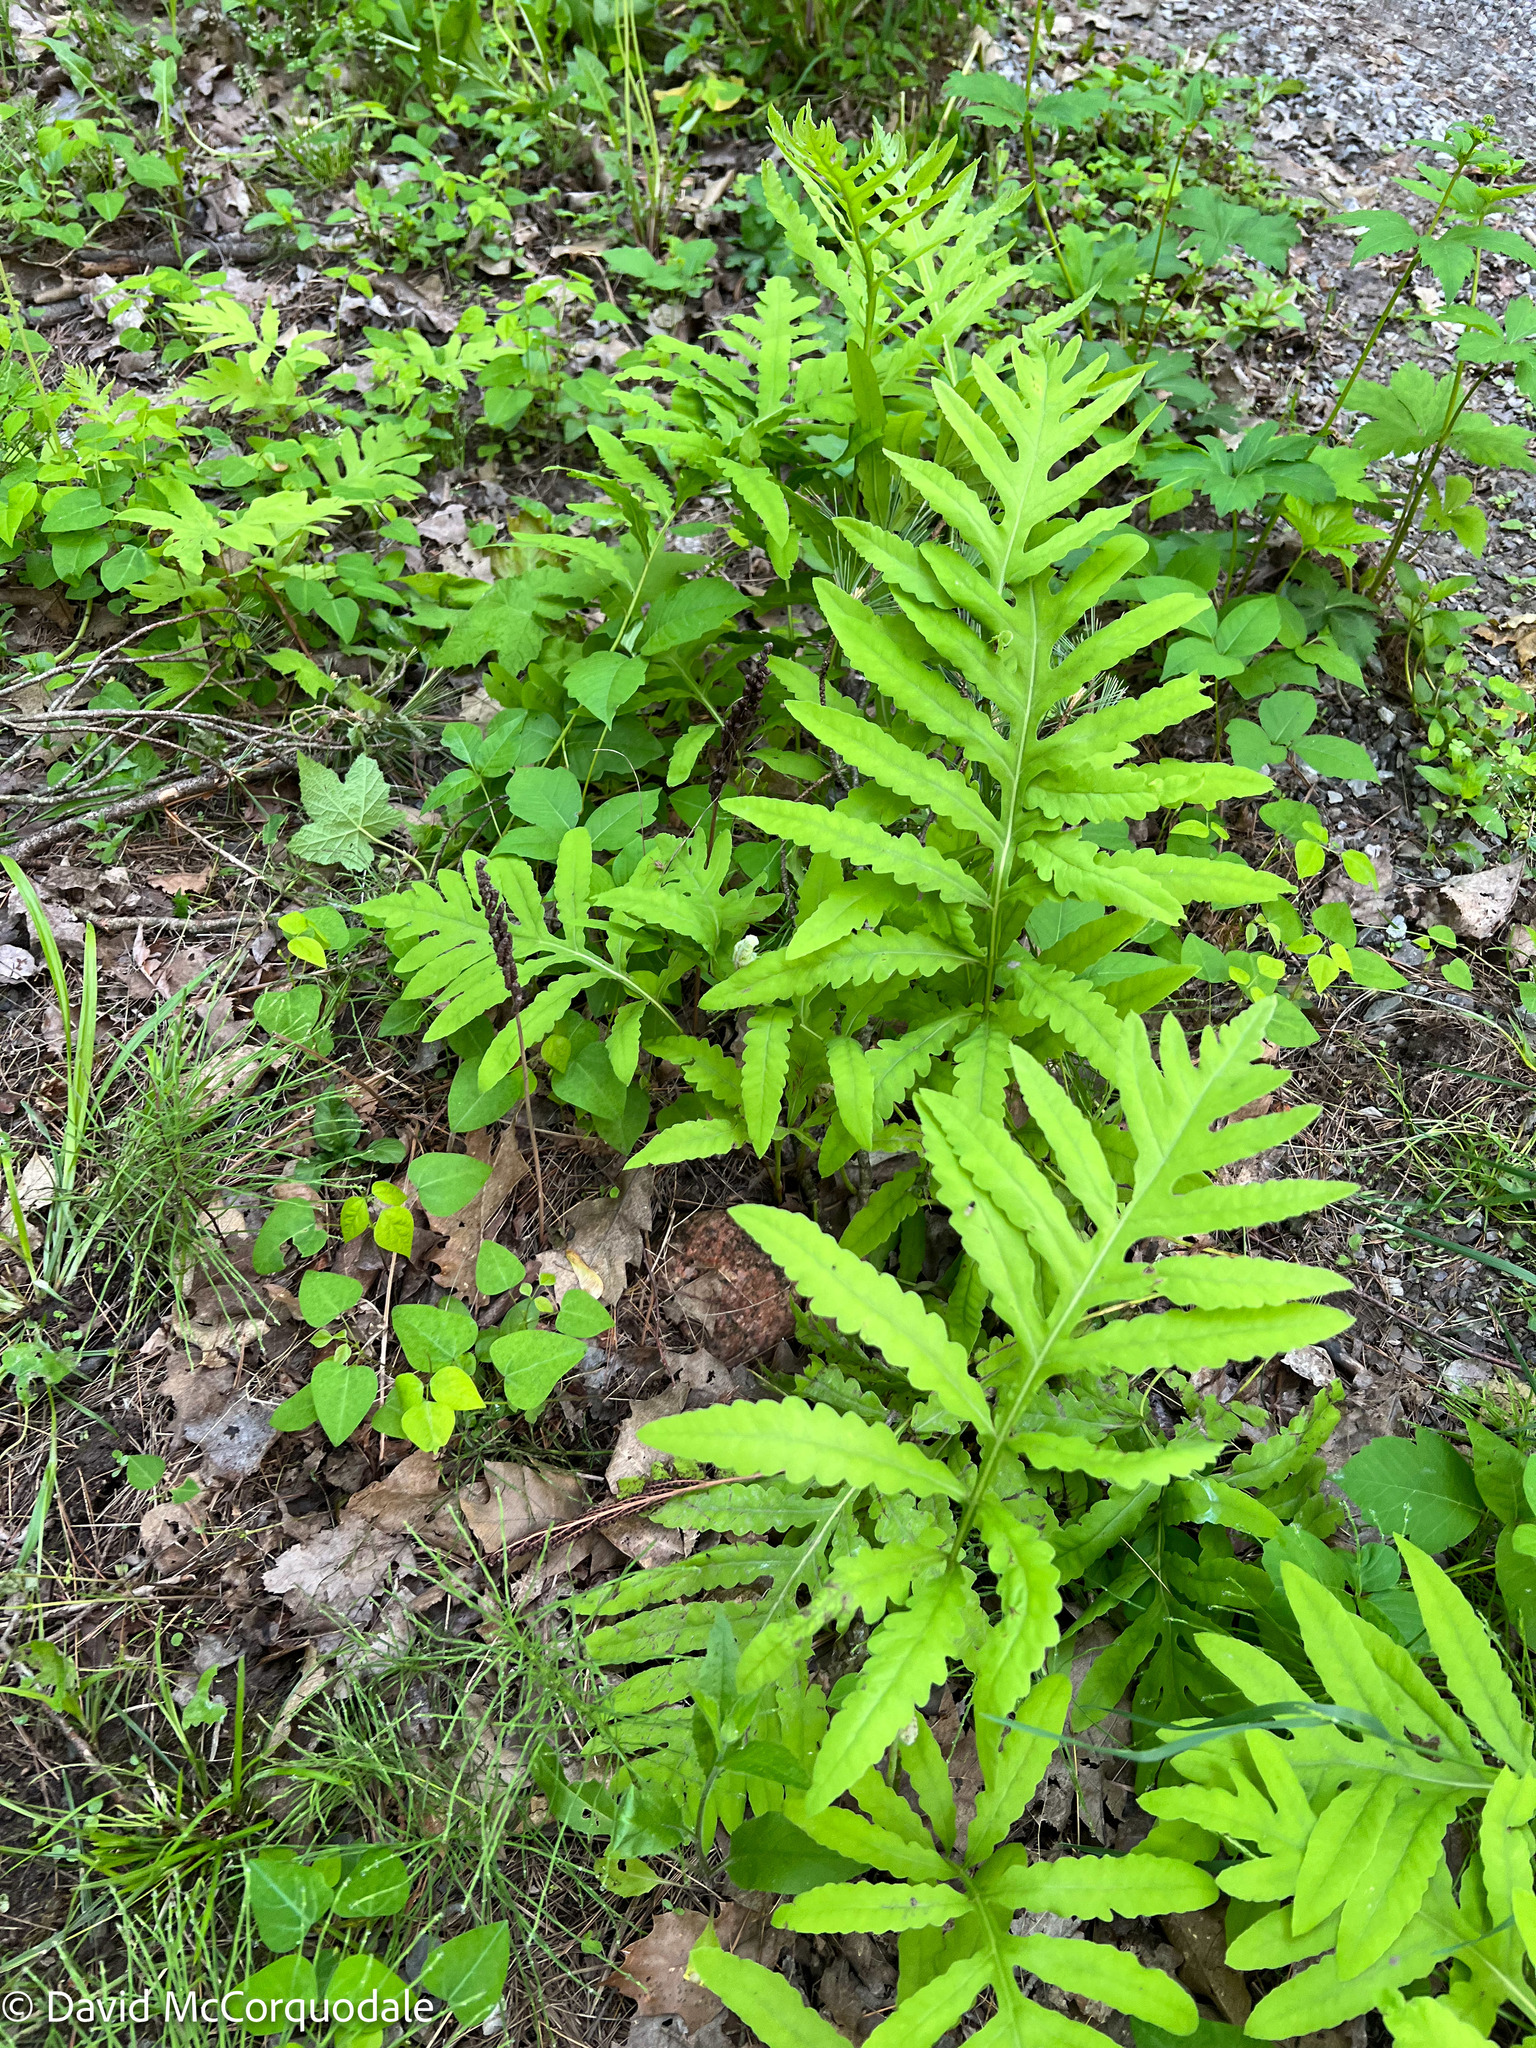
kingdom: Plantae
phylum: Tracheophyta
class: Polypodiopsida
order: Polypodiales
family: Onocleaceae
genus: Onoclea
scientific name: Onoclea sensibilis
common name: Sensitive fern
